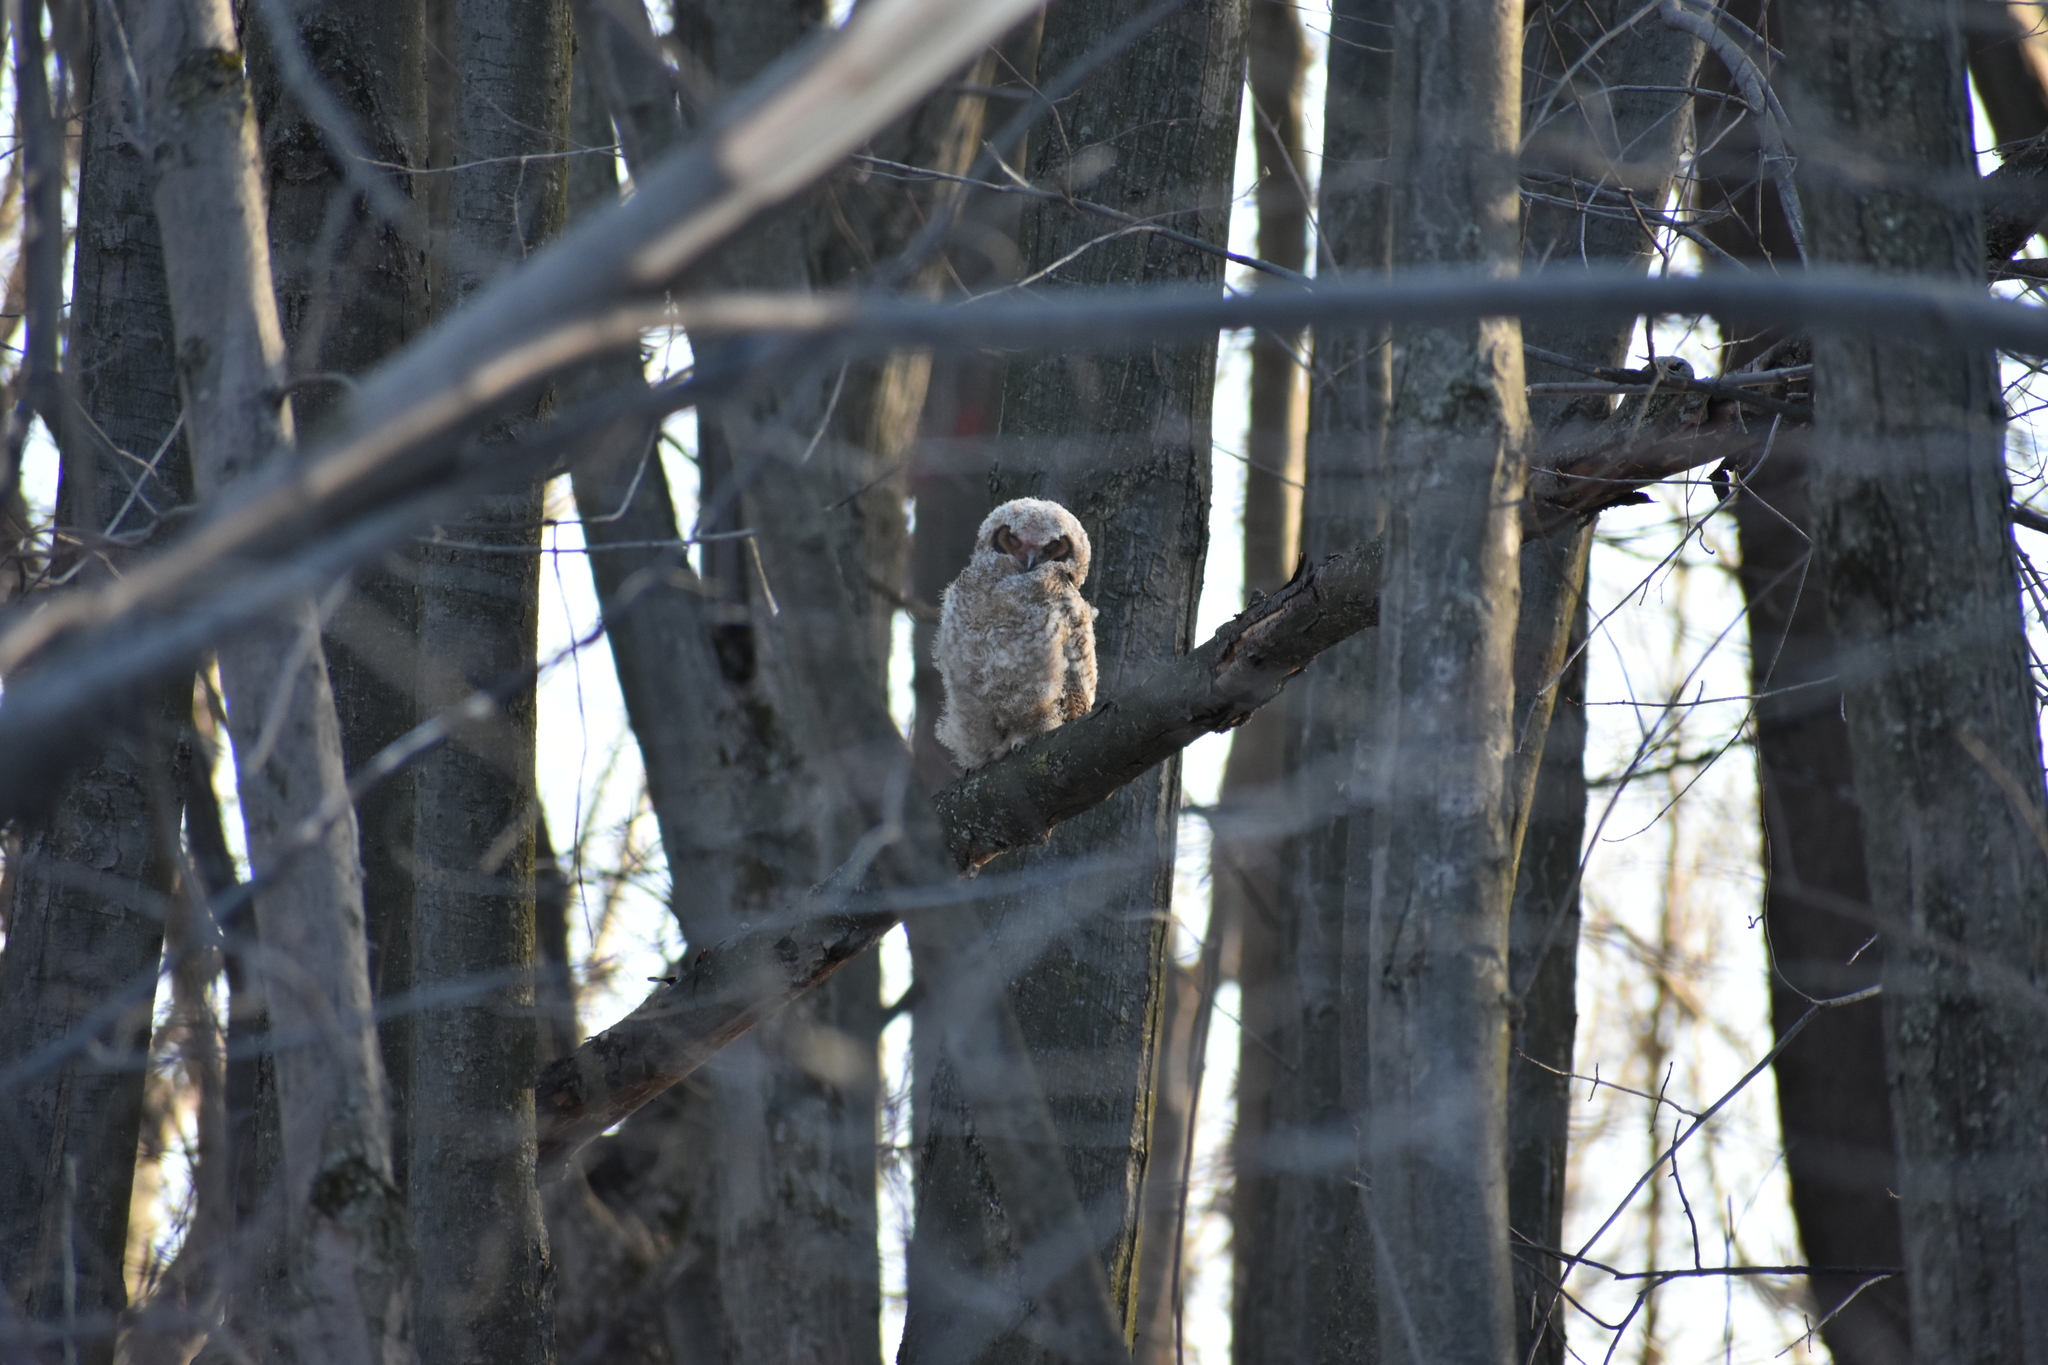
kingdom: Animalia
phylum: Chordata
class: Aves
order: Strigiformes
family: Strigidae
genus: Bubo
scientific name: Bubo virginianus
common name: Great horned owl
